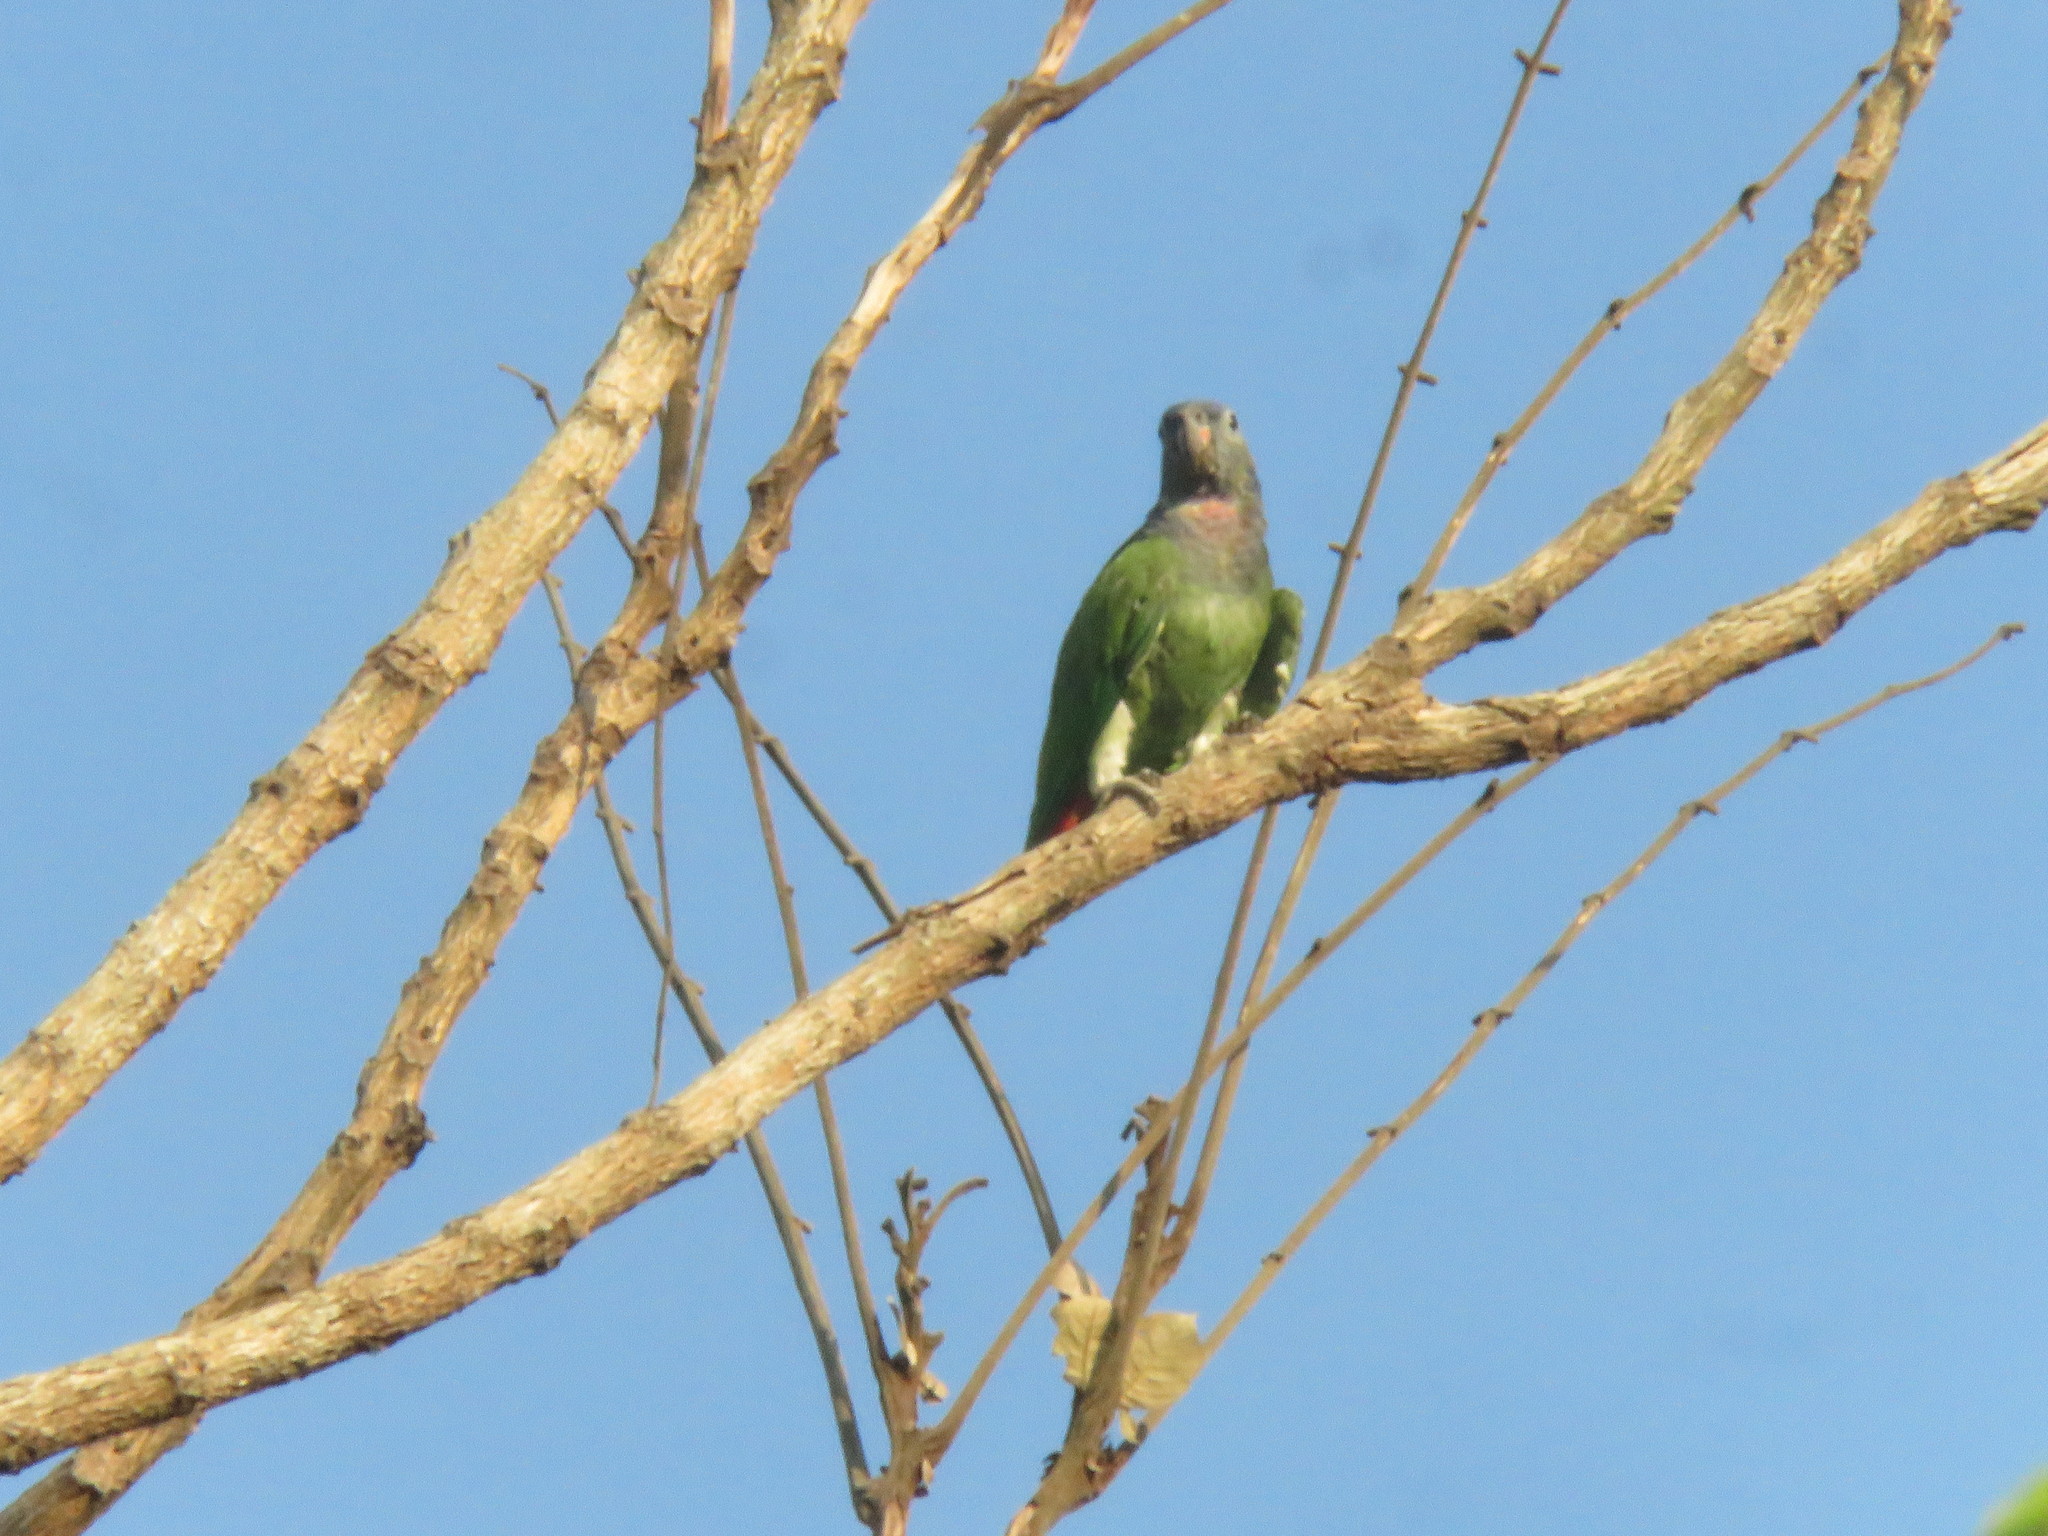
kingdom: Animalia
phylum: Chordata
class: Aves
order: Psittaciformes
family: Psittacidae
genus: Pionus
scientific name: Pionus menstruus
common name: Blue-headed parrot
